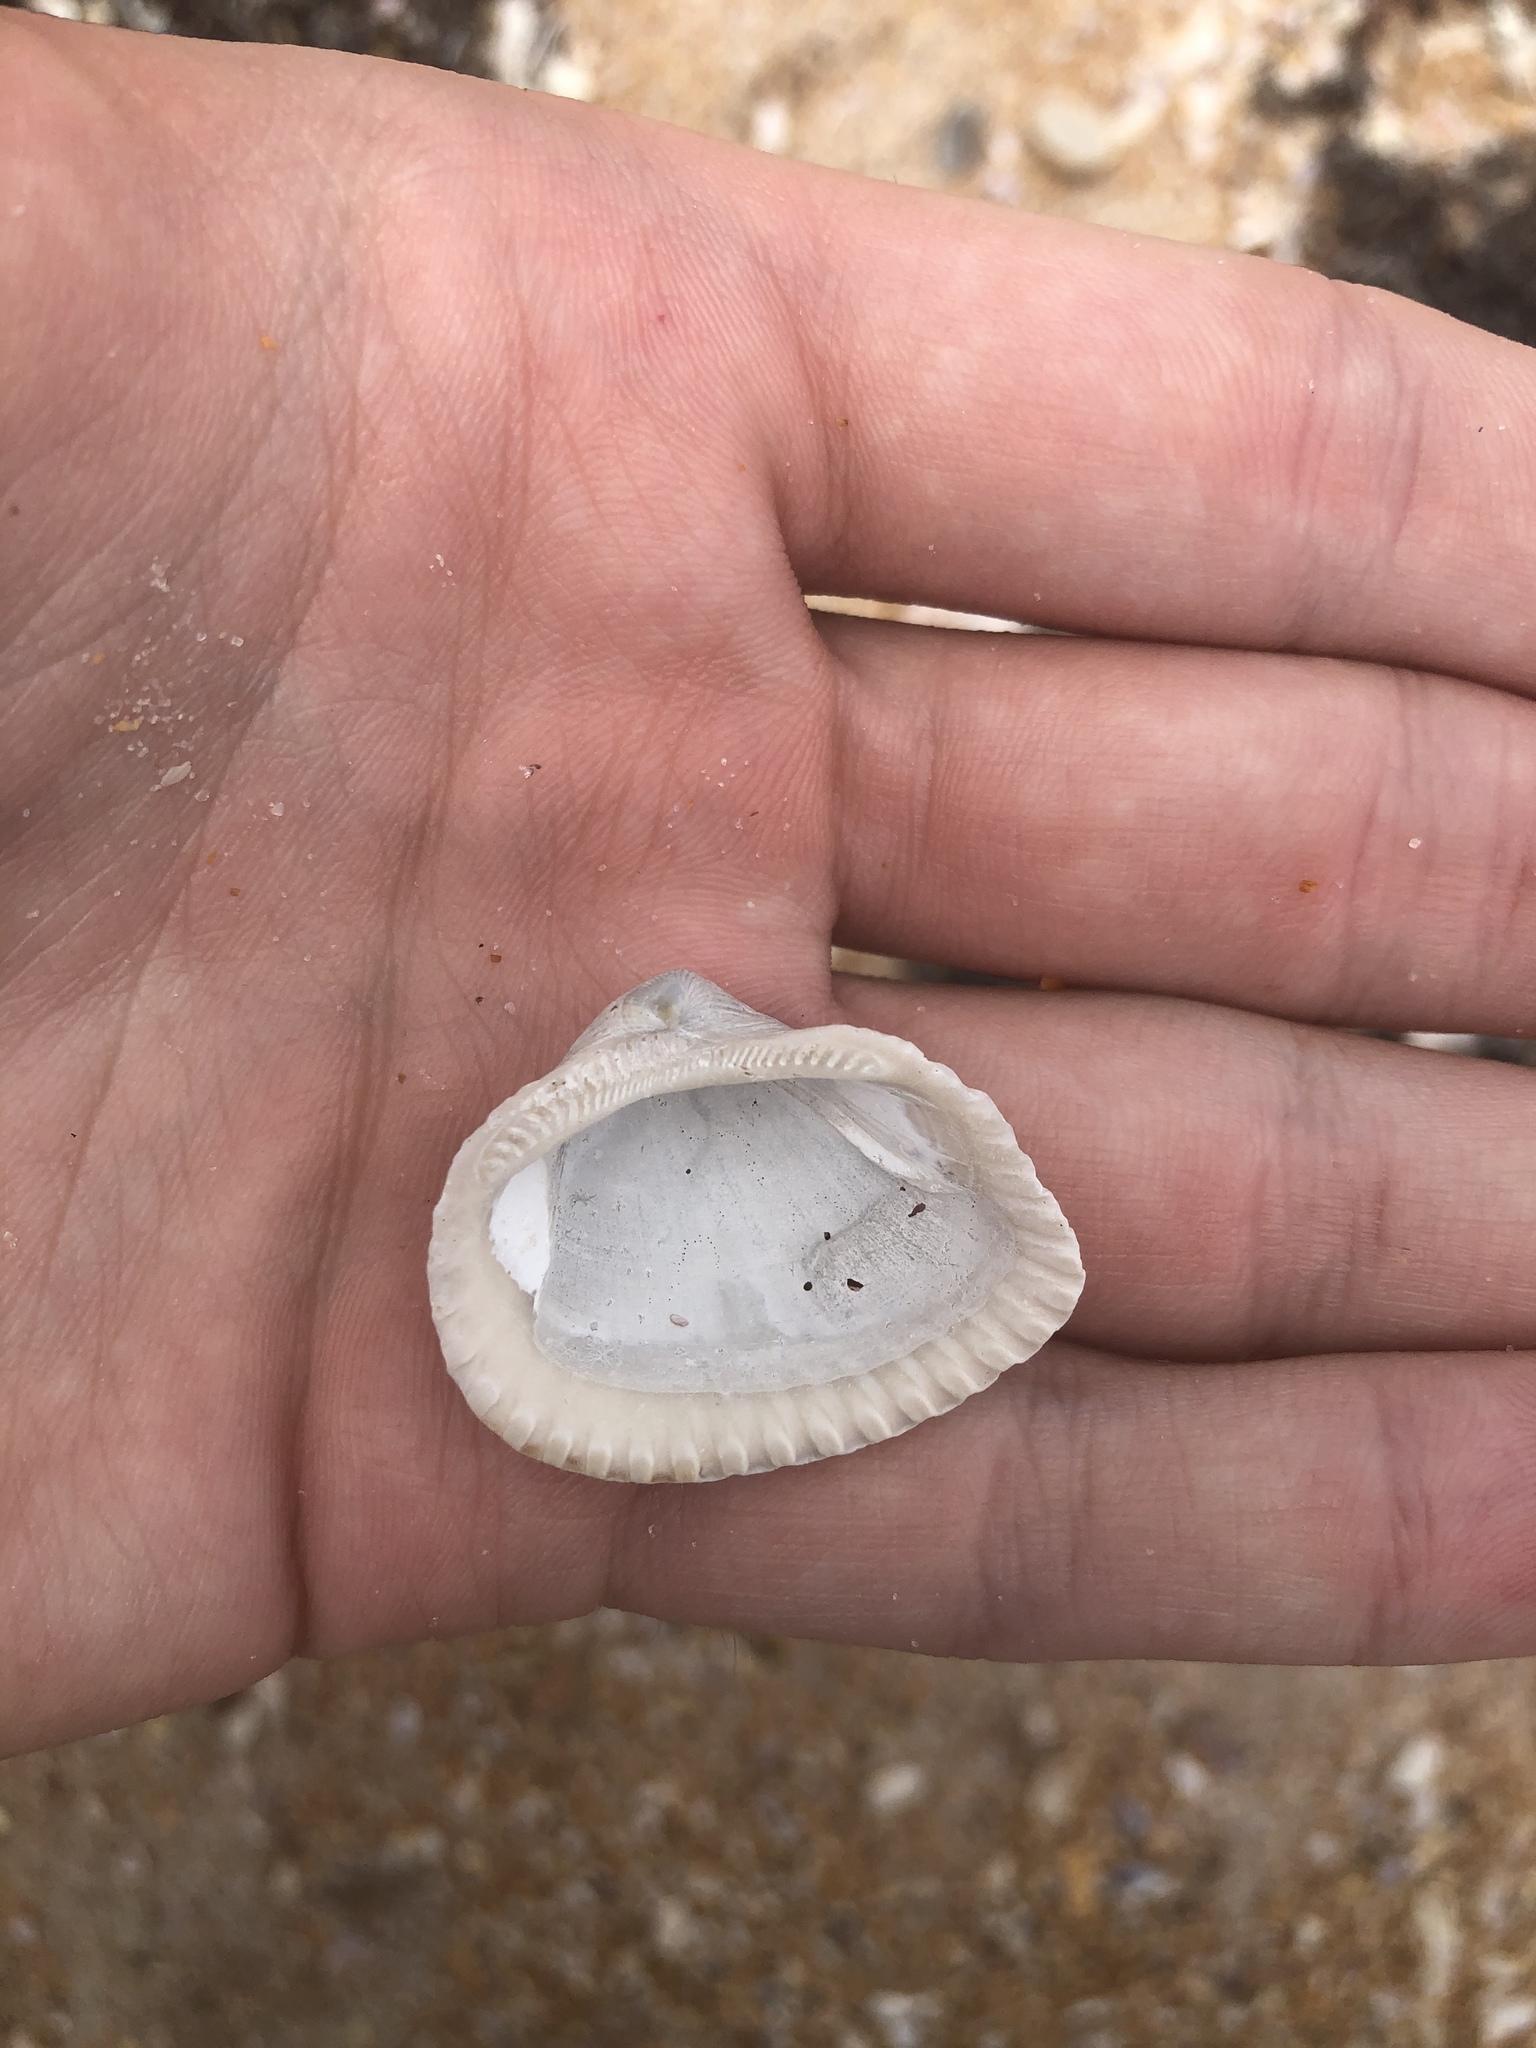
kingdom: Animalia
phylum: Mollusca
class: Bivalvia
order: Arcida
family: Noetiidae
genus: Noetia
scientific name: Noetia ponderosa
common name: Ponderous ark
